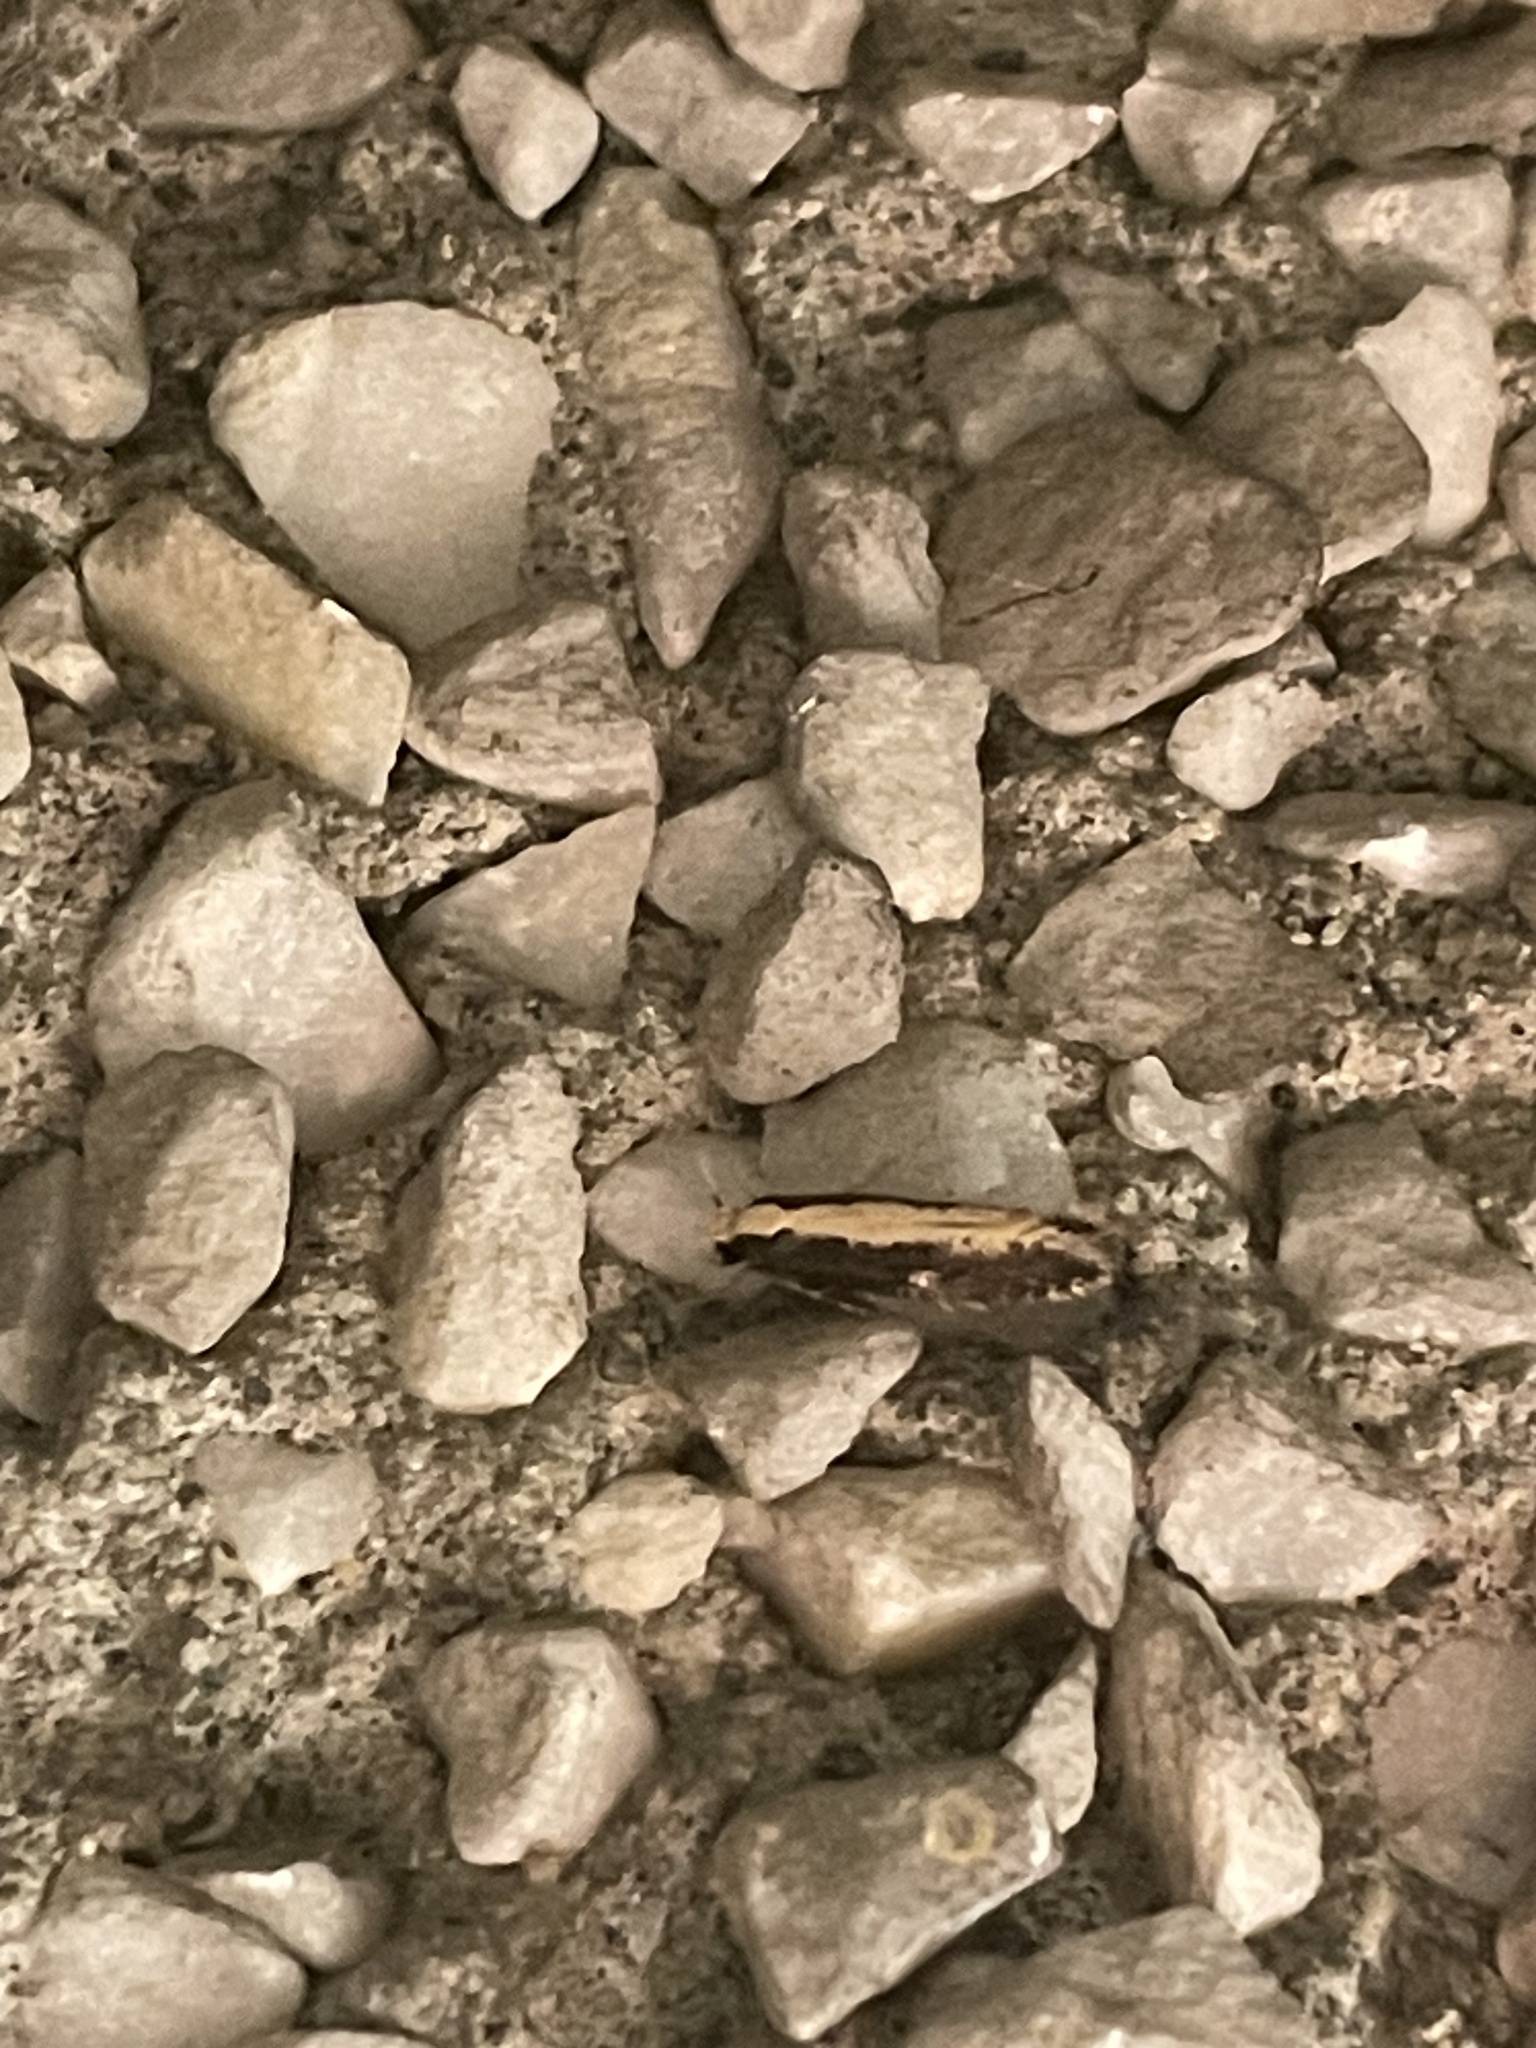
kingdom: Animalia
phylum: Arthropoda
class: Insecta
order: Lepidoptera
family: Tineidae
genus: Monopis
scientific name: Monopis crocicapitella
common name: Moth
